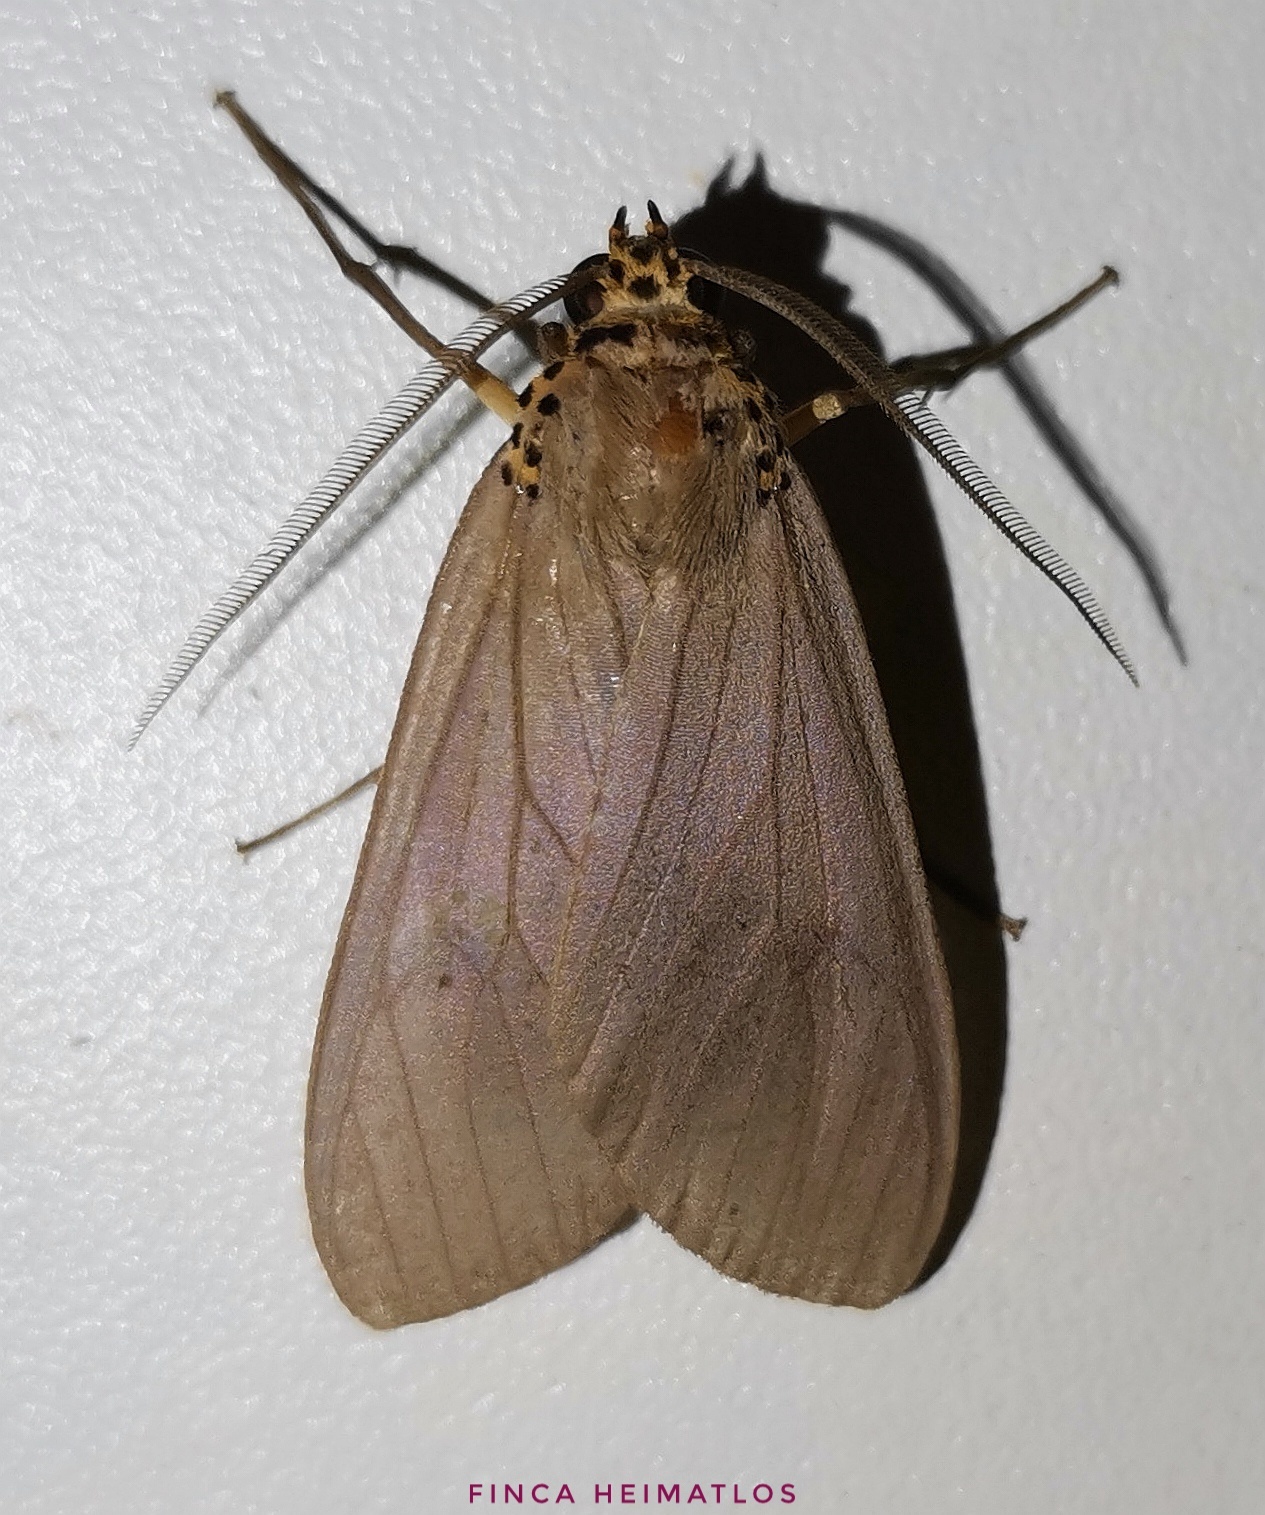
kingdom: Animalia
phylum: Arthropoda
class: Insecta
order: Lepidoptera
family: Erebidae
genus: Pelochyta
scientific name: Pelochyta affinis
